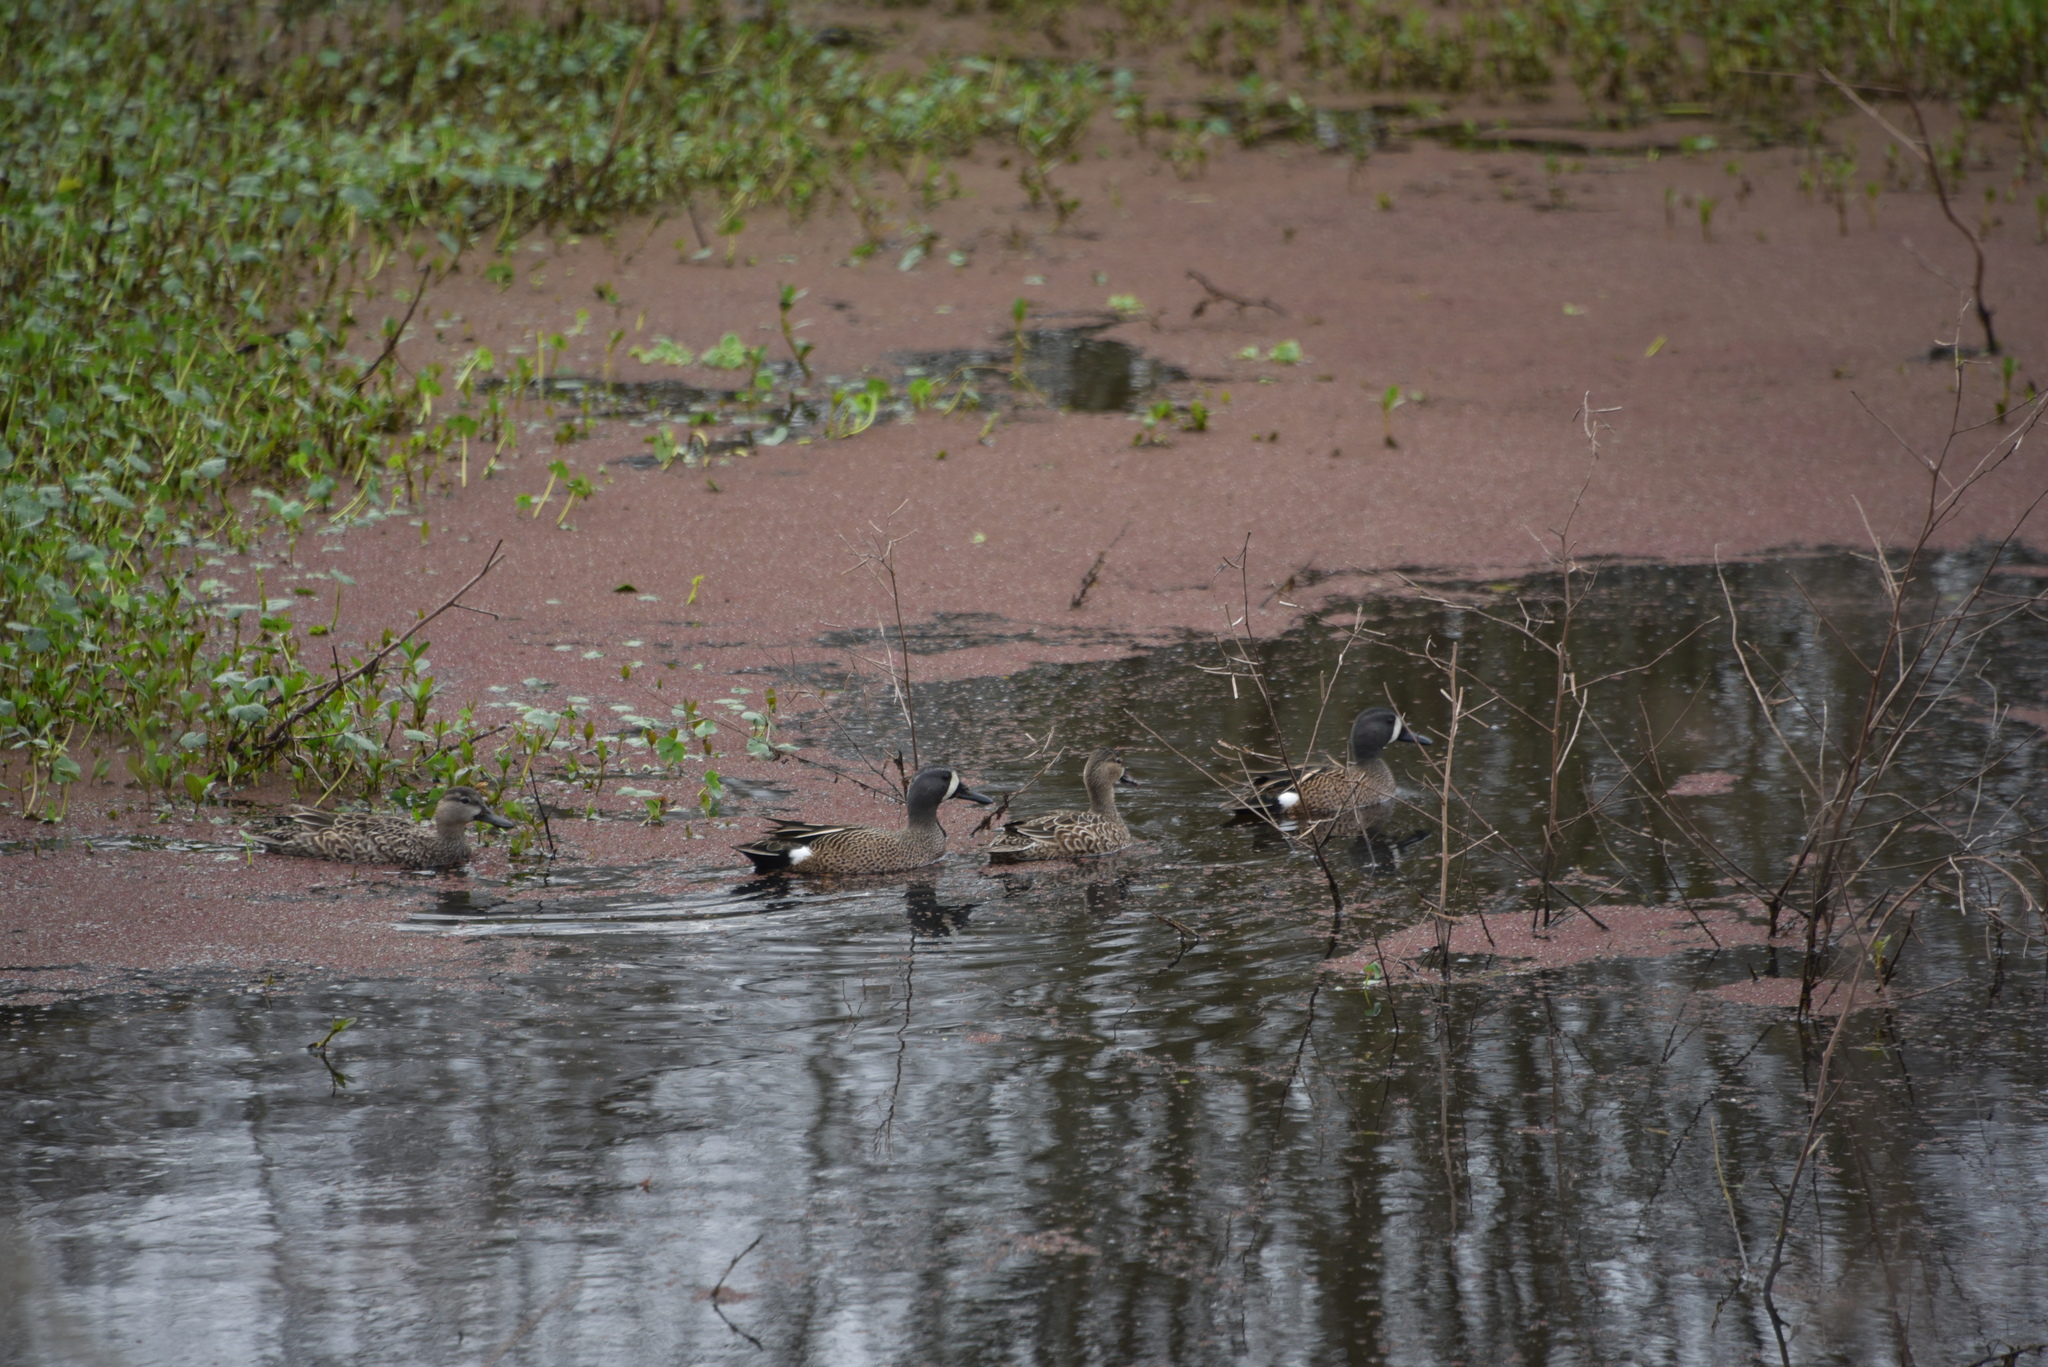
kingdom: Animalia
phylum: Chordata
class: Aves
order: Anseriformes
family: Anatidae
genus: Spatula
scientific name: Spatula discors
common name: Blue-winged teal
